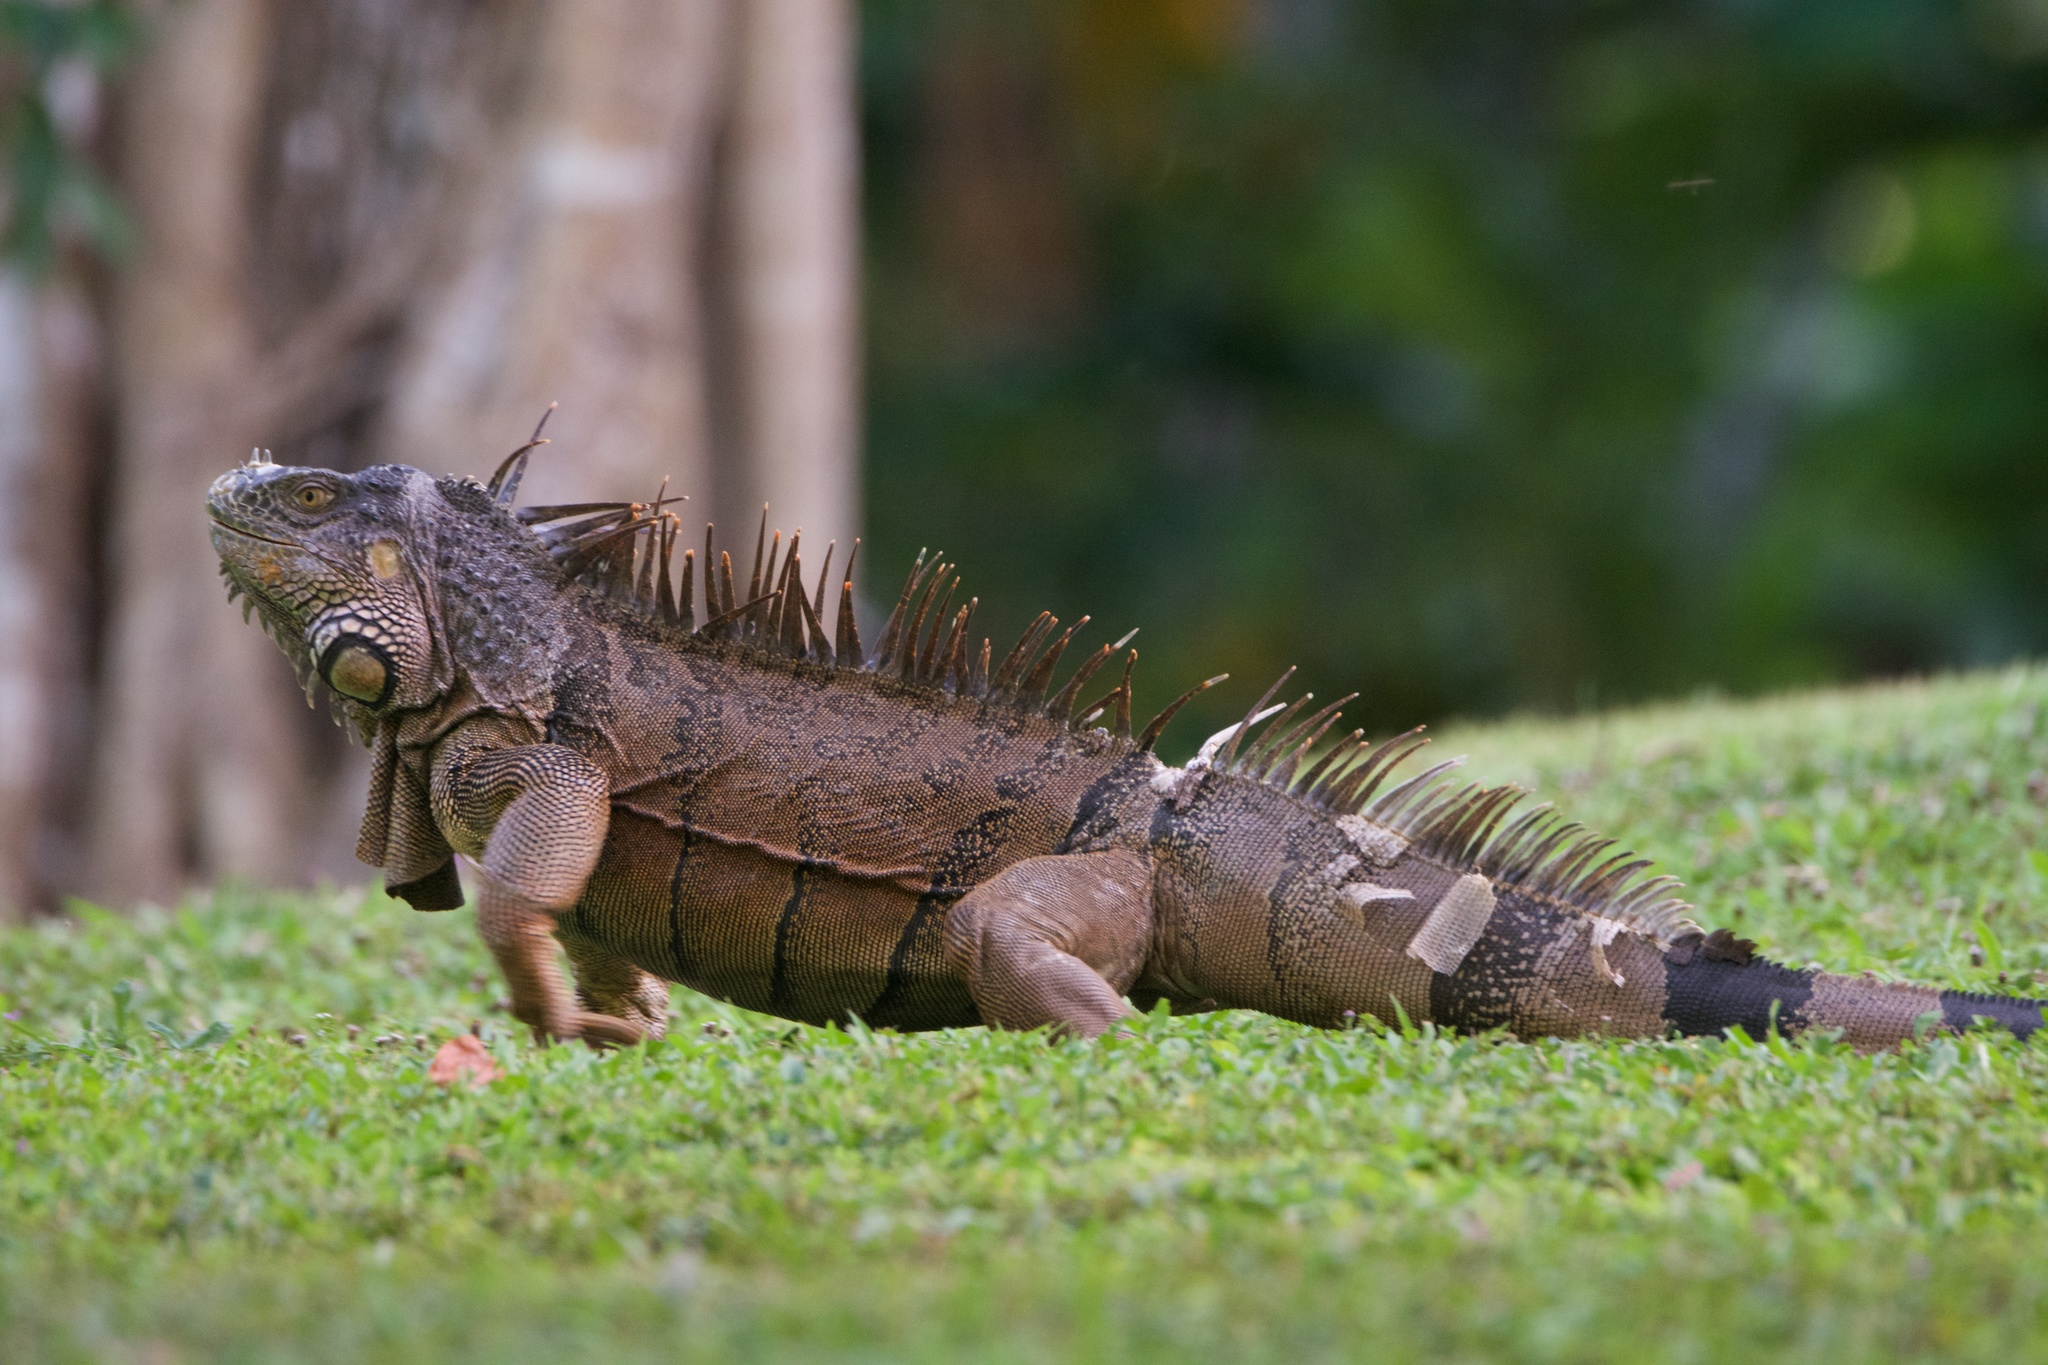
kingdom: Animalia
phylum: Chordata
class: Squamata
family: Iguanidae
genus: Iguana
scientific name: Iguana iguana
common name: Green iguana
